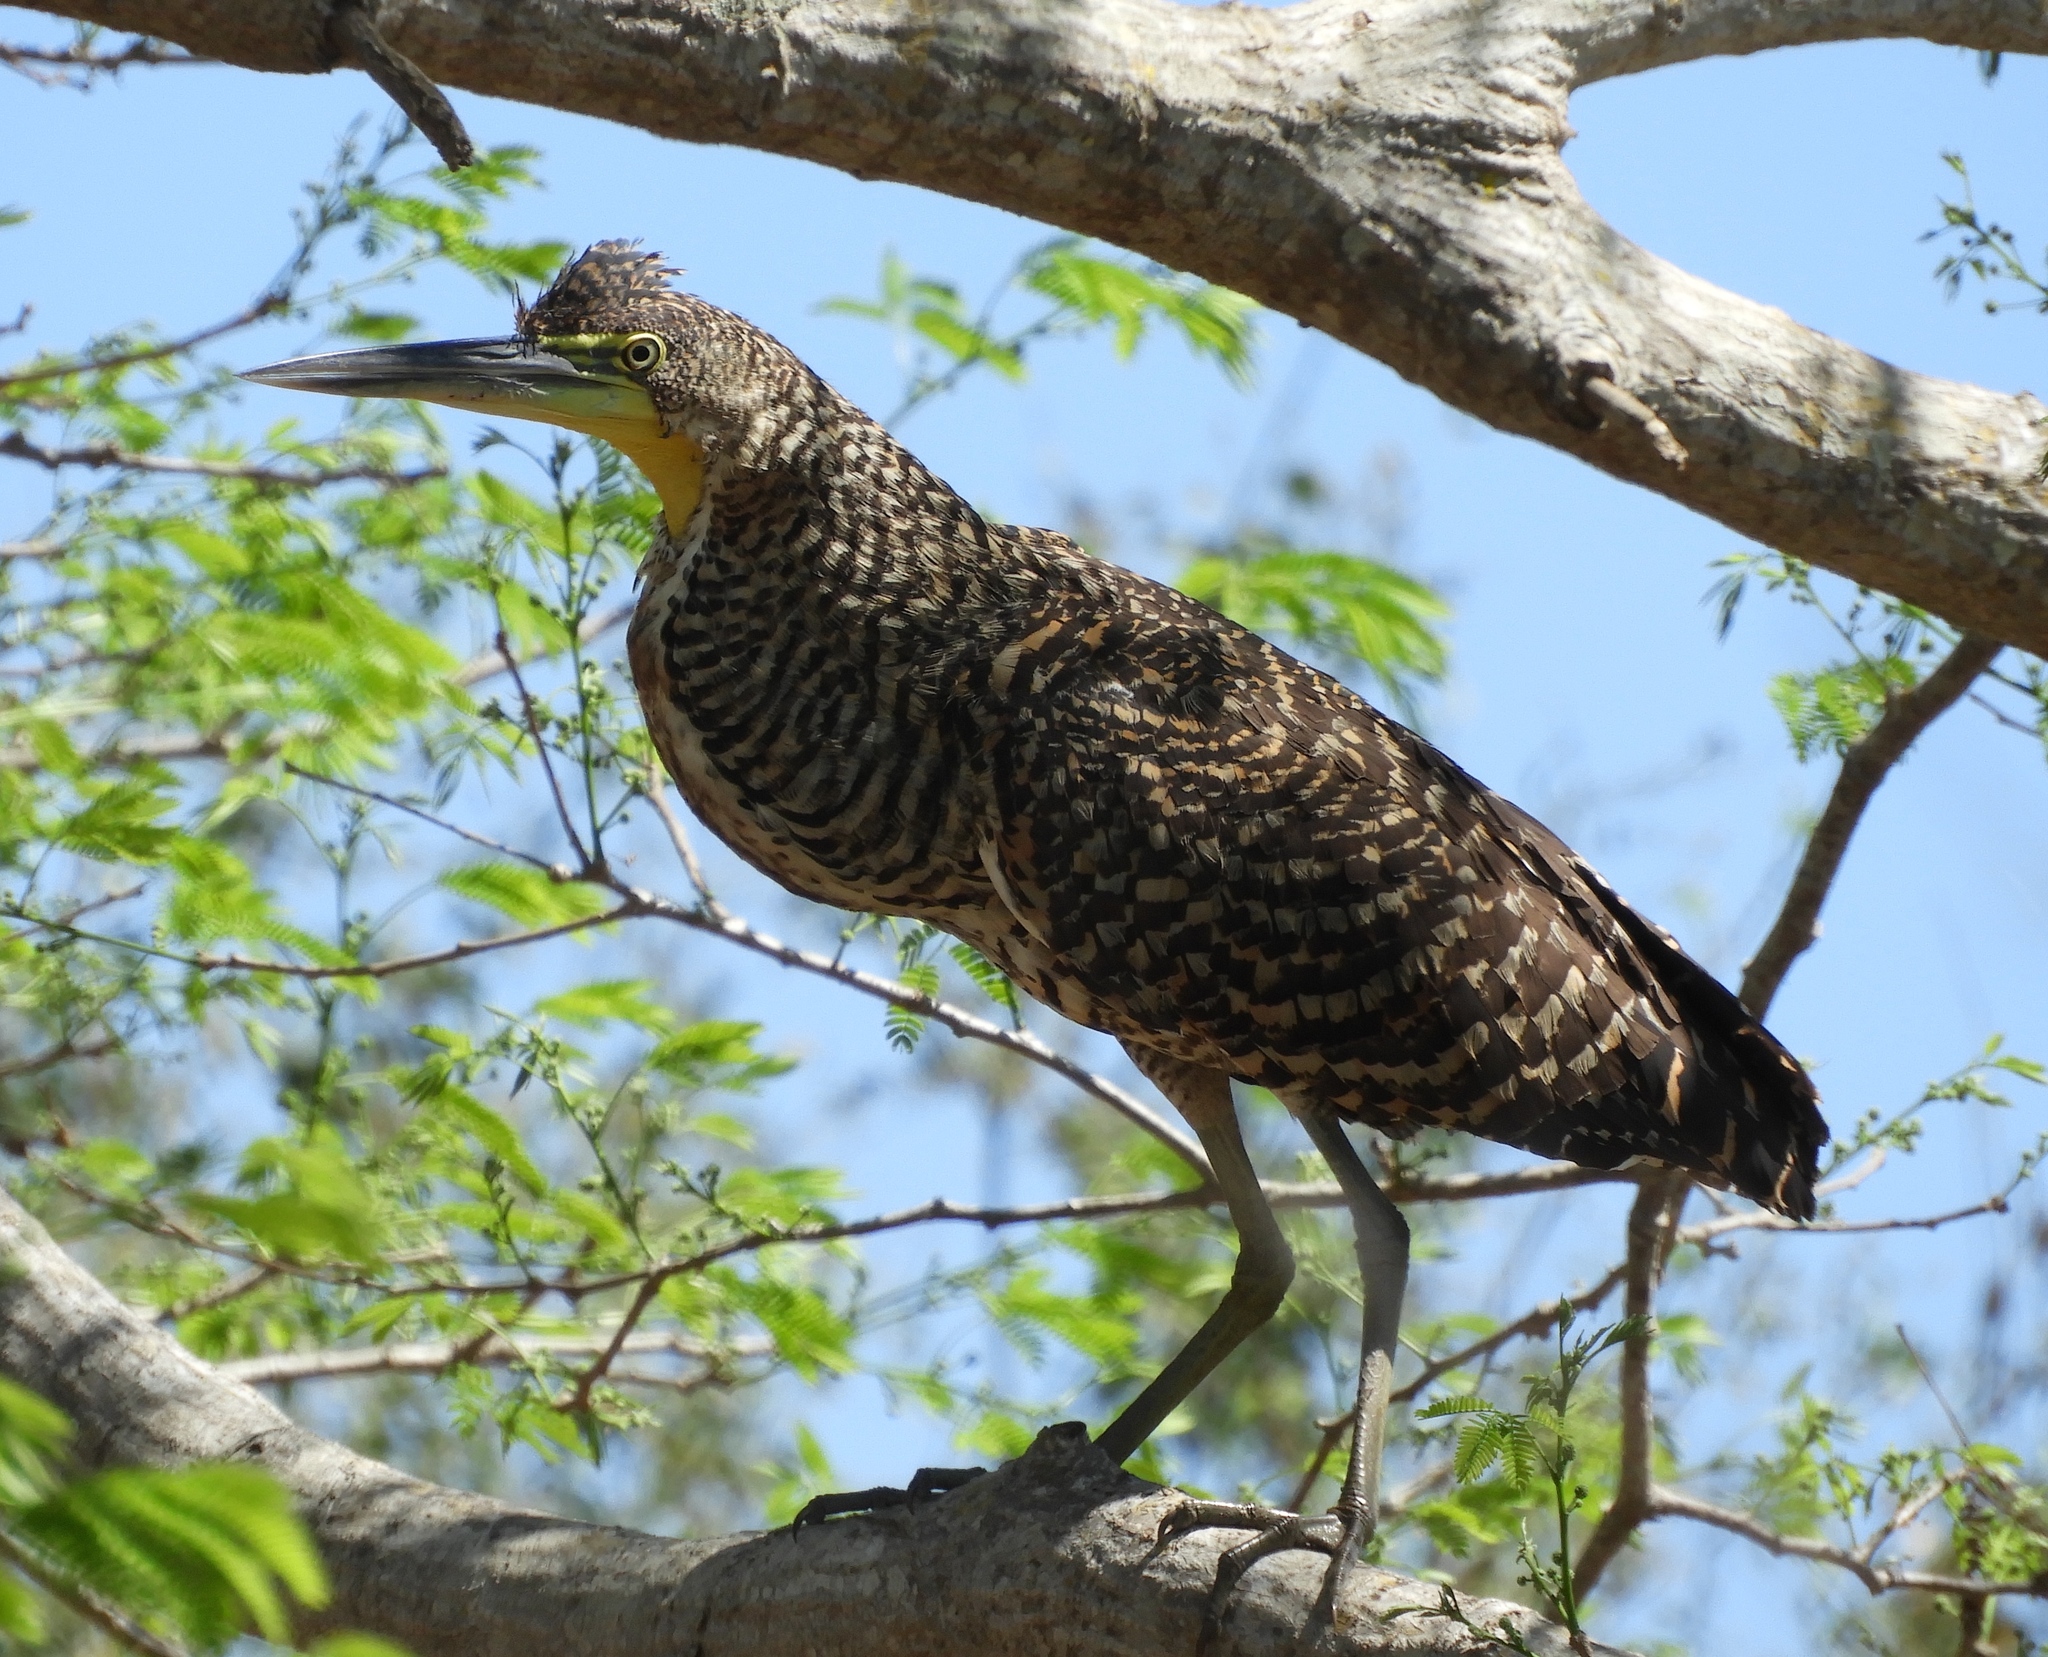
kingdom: Animalia
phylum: Chordata
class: Aves
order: Pelecaniformes
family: Ardeidae
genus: Tigrisoma
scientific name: Tigrisoma mexicanum
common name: Bare-throated tiger-heron
